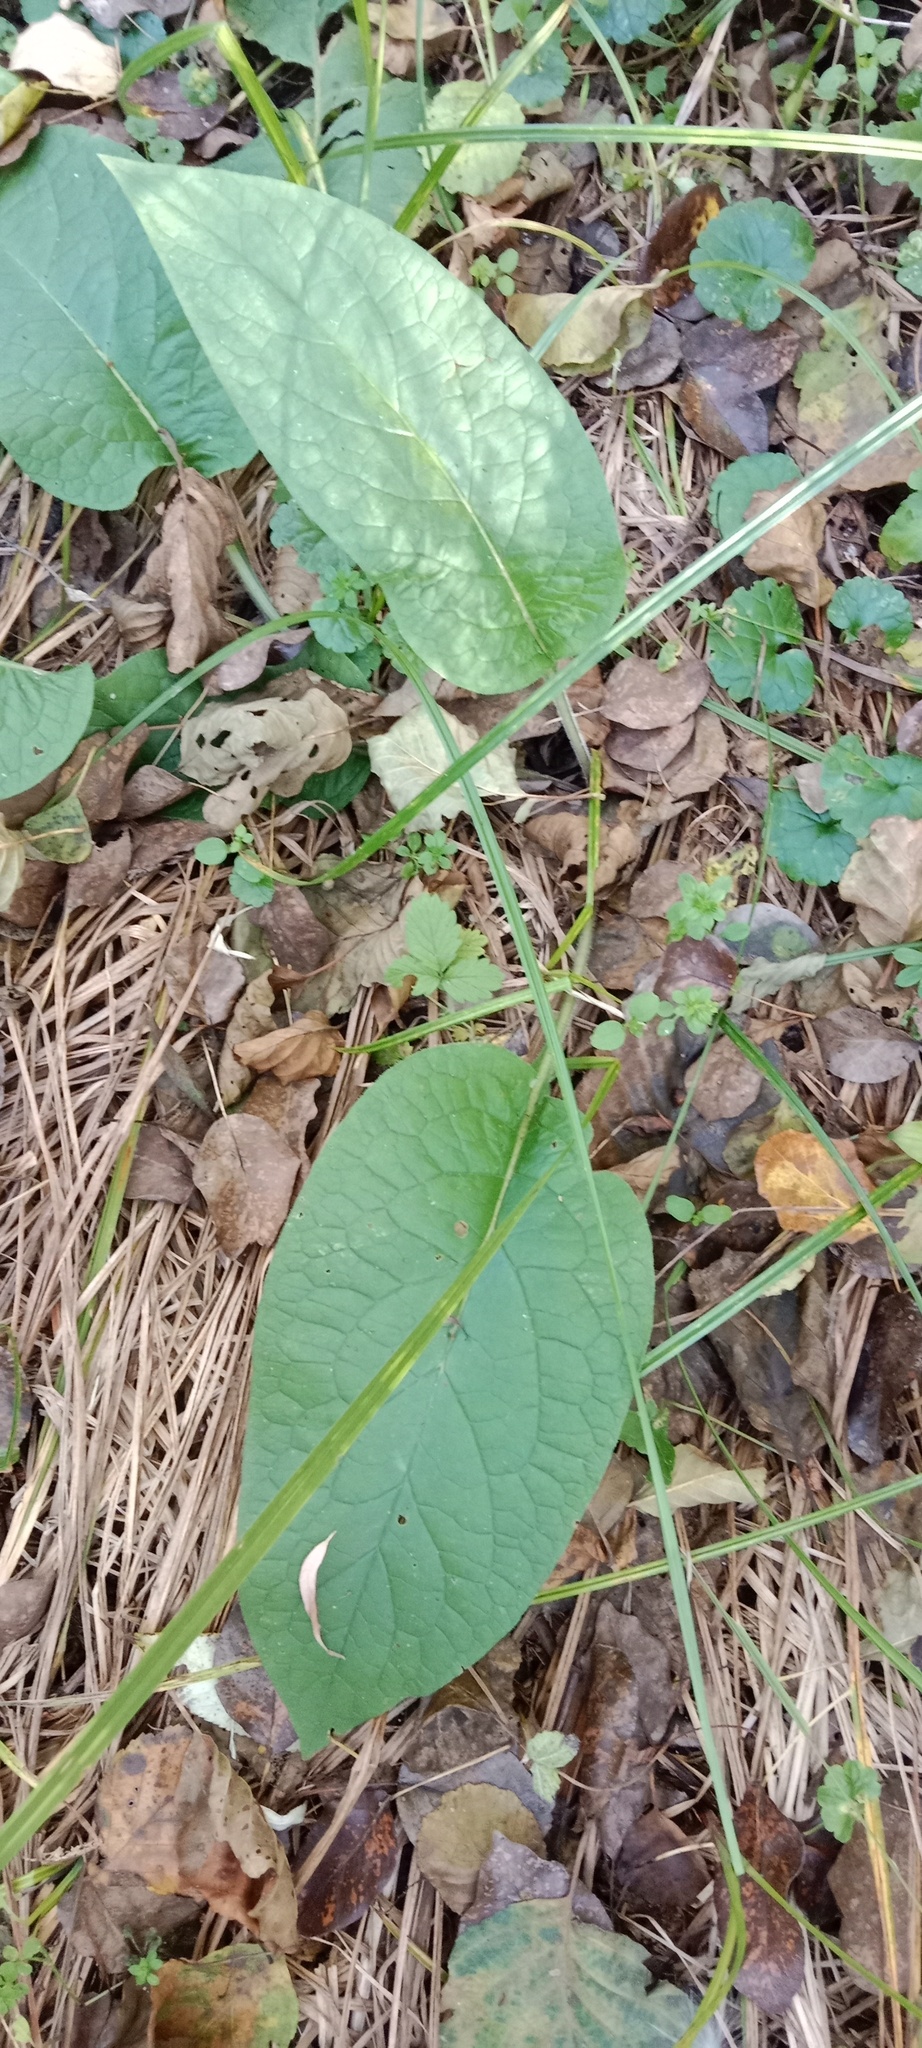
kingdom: Plantae
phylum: Tracheophyta
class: Magnoliopsida
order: Boraginales
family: Boraginaceae
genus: Symphytum
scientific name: Symphytum officinale
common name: Common comfrey
